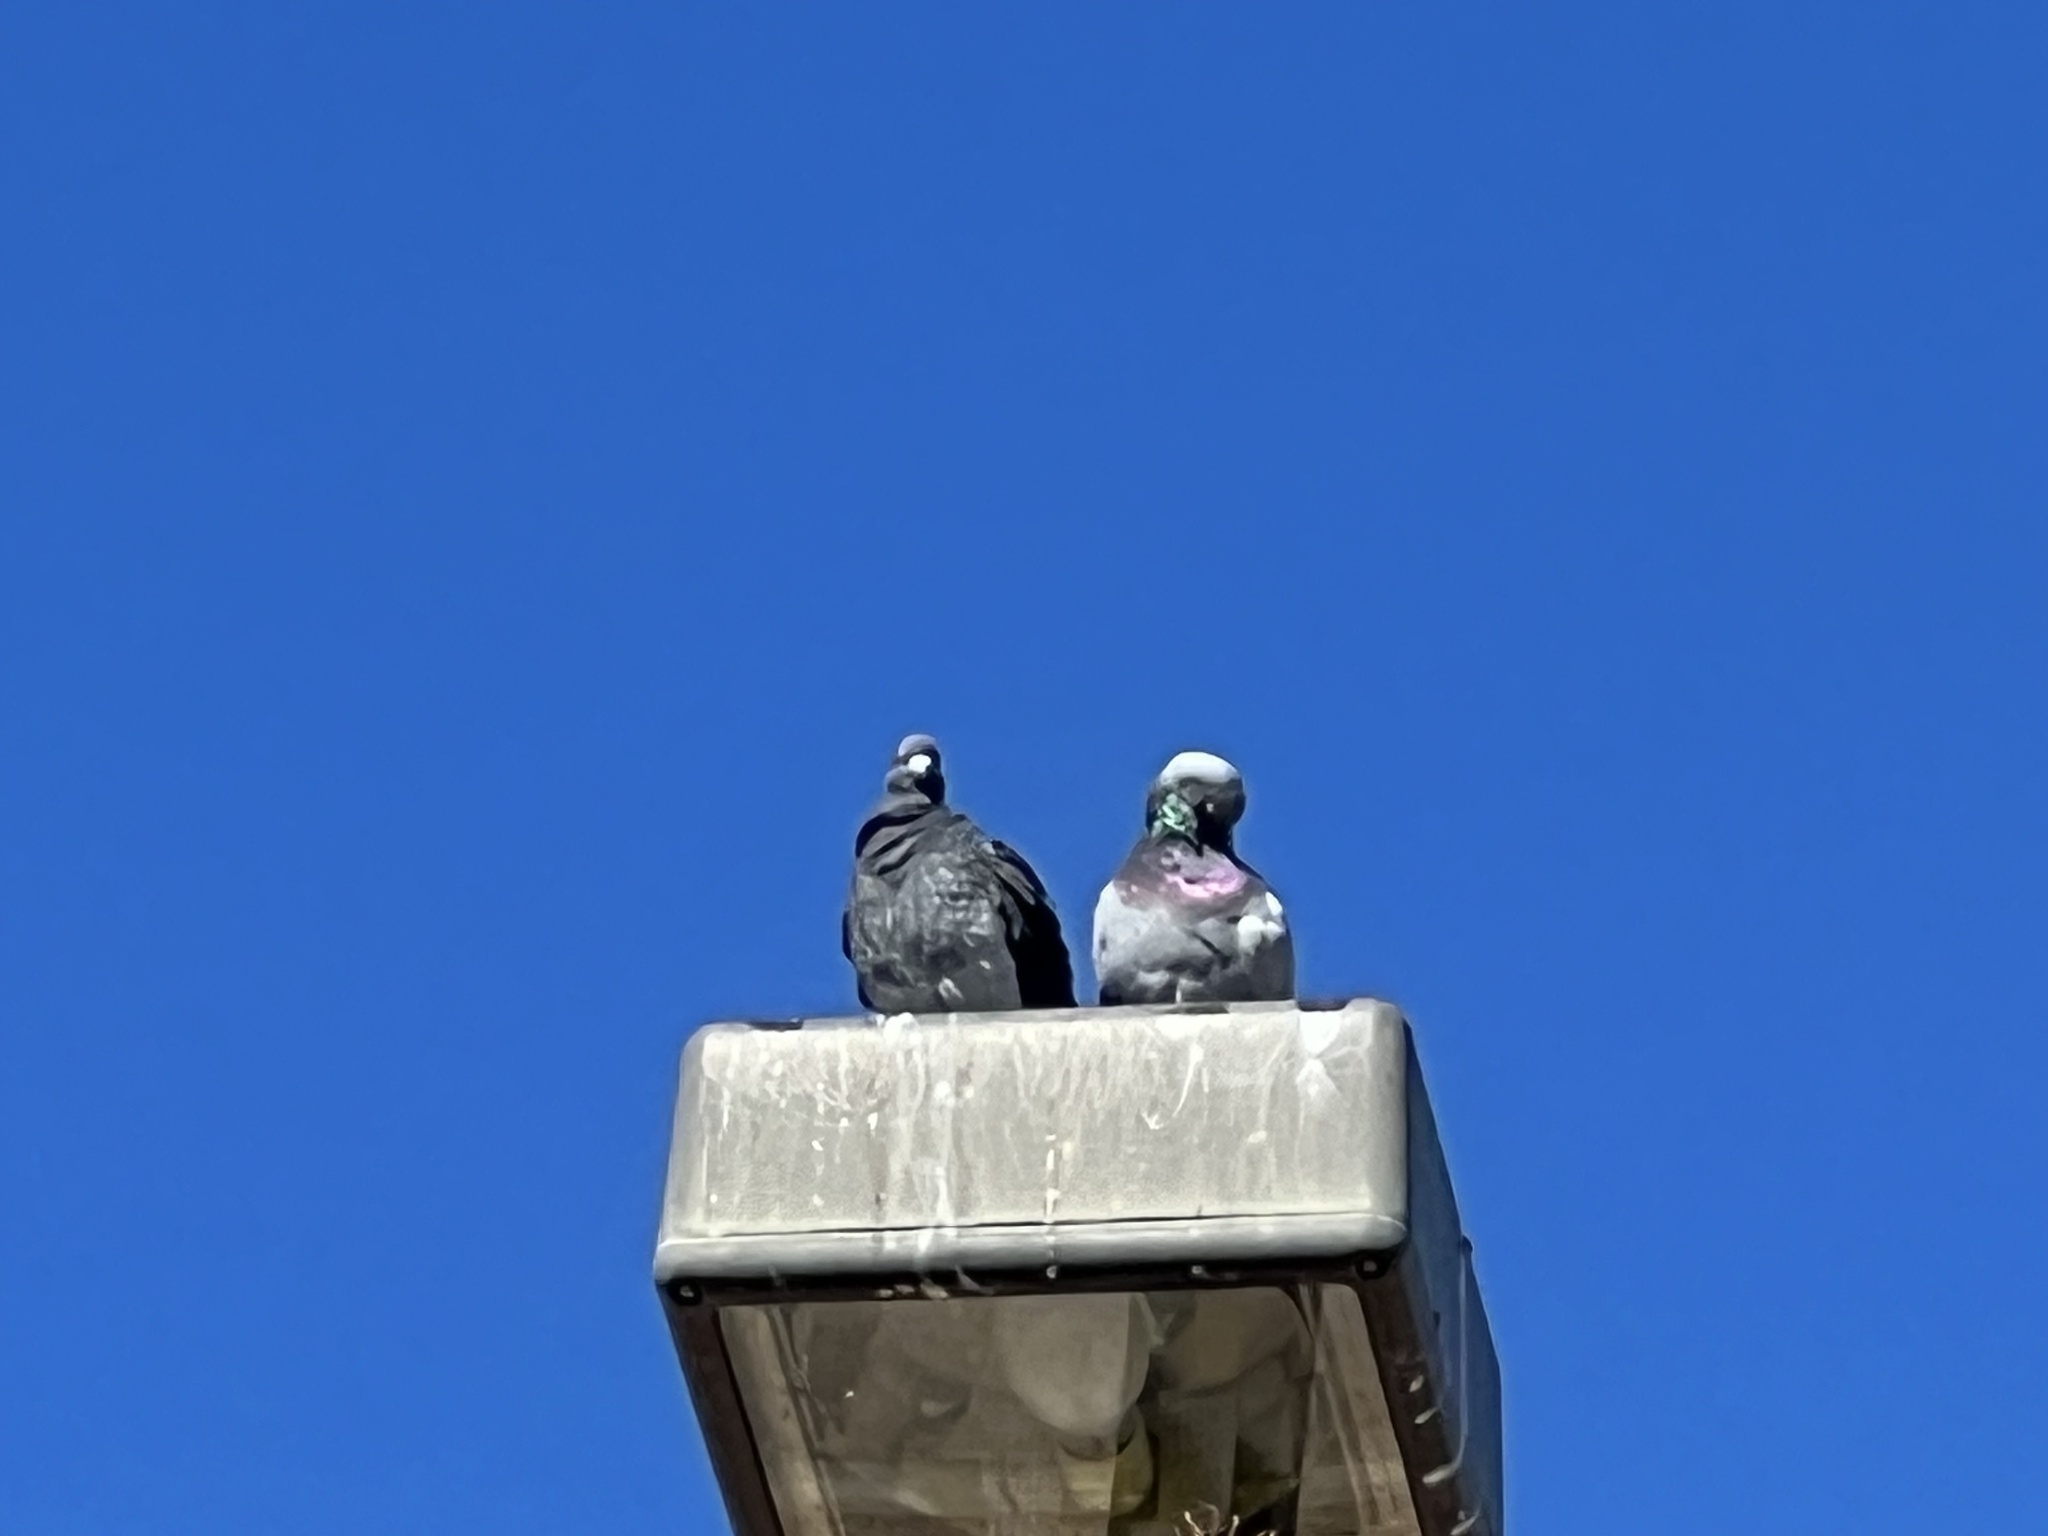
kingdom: Animalia
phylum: Chordata
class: Aves
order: Columbiformes
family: Columbidae
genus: Columba
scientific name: Columba livia
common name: Rock pigeon
